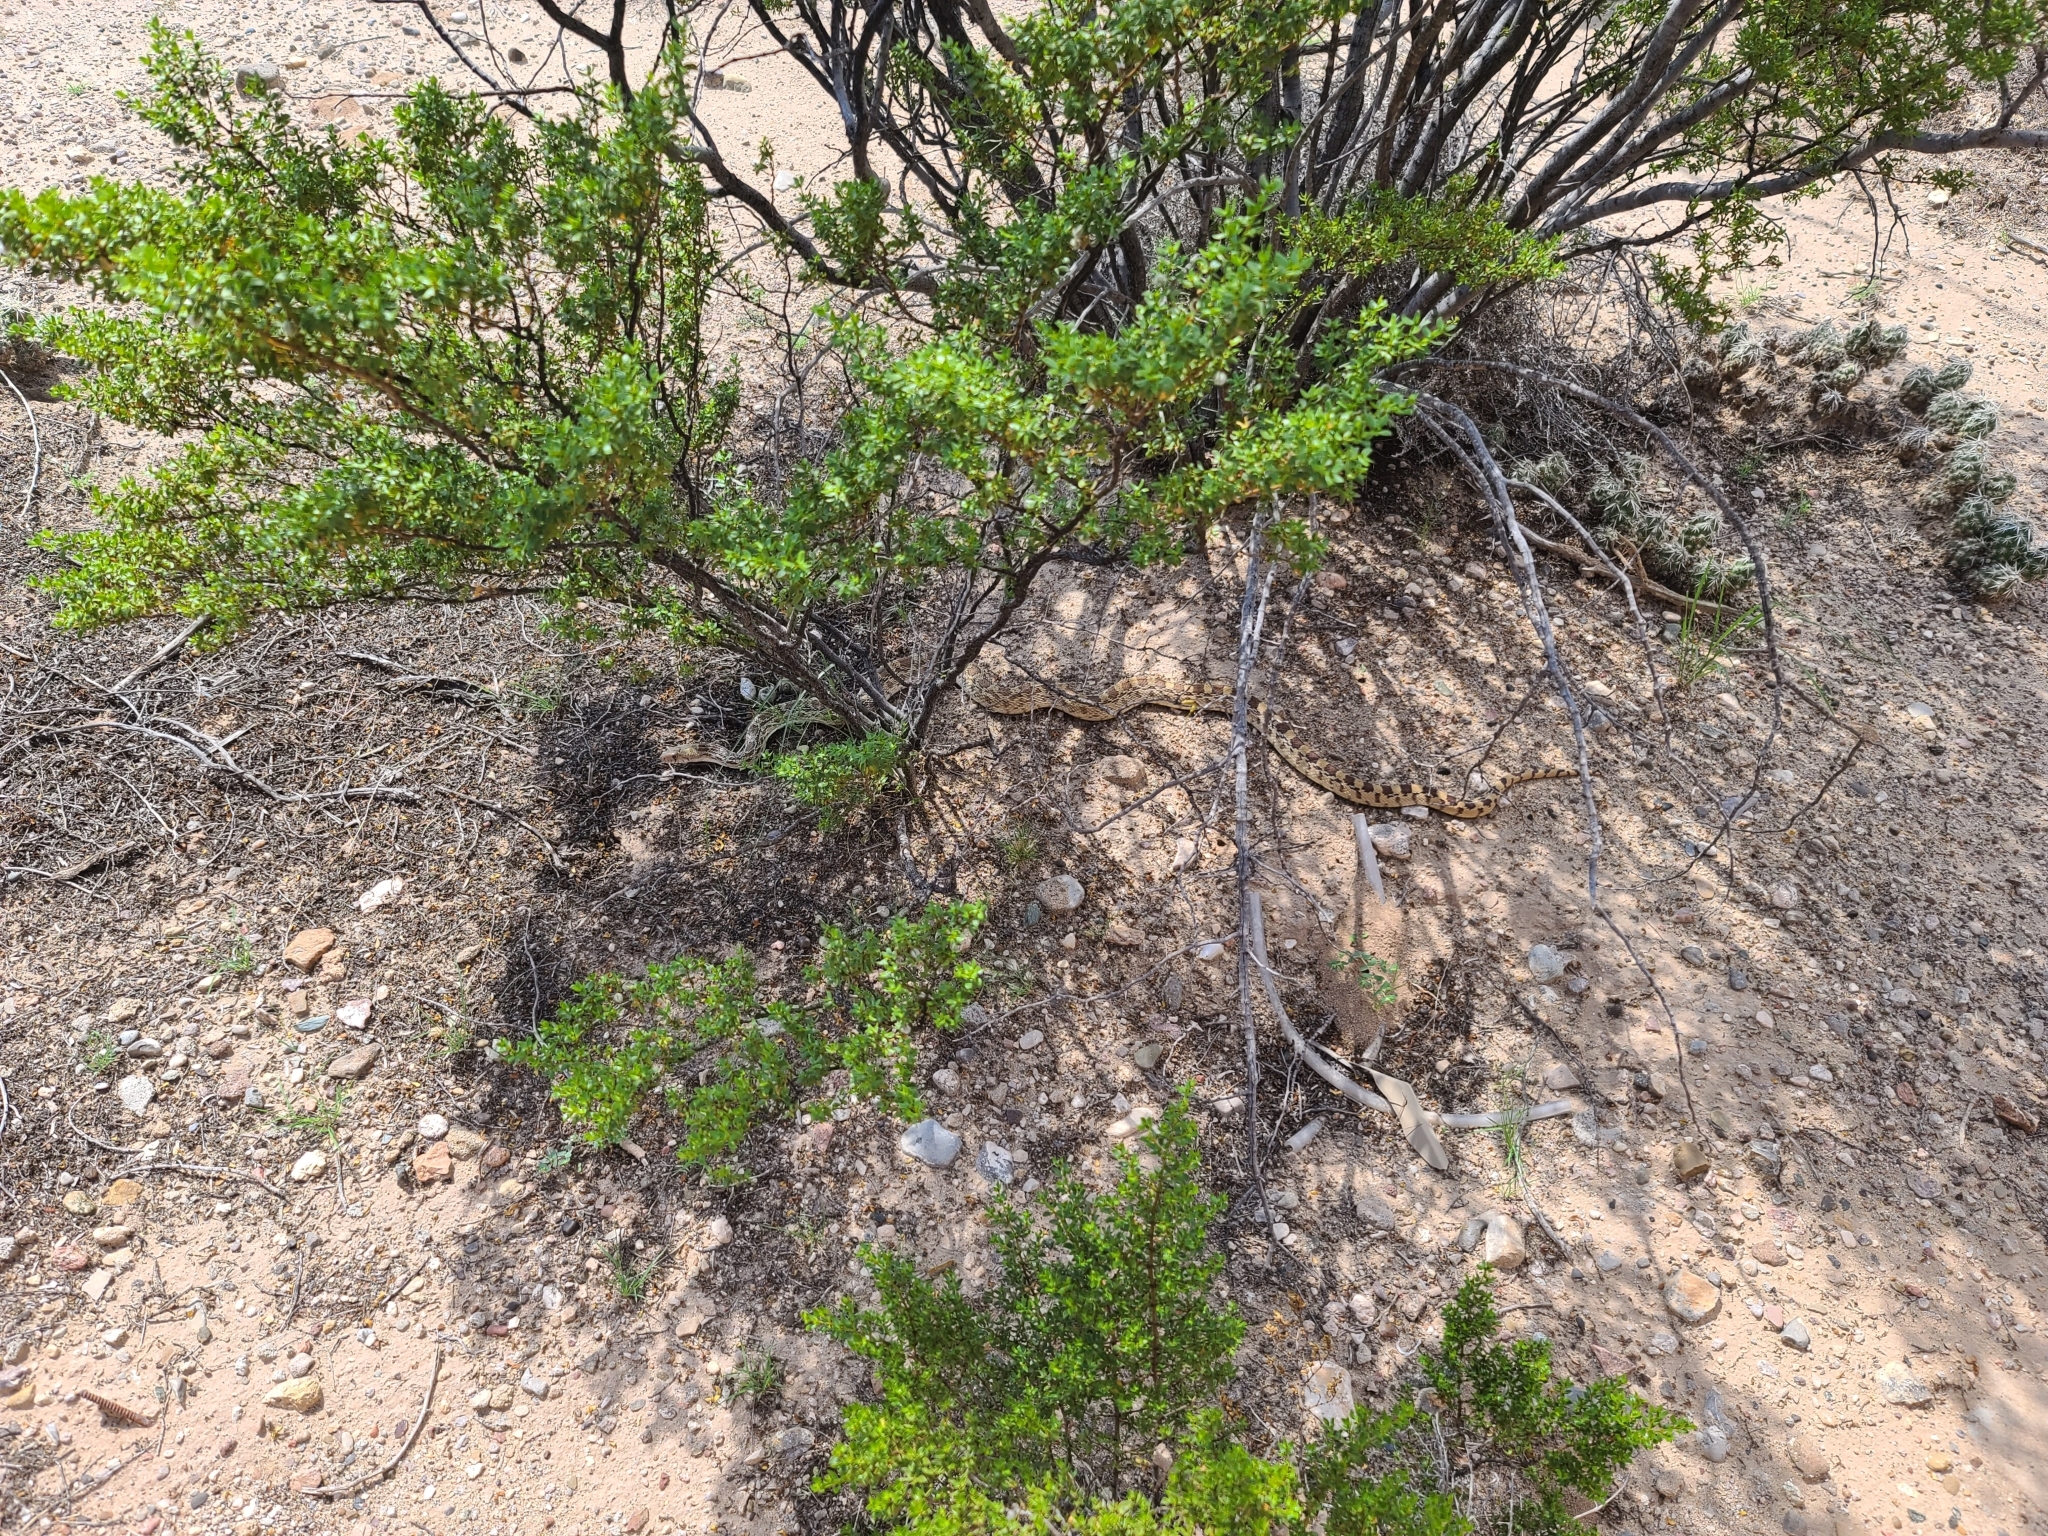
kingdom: Animalia
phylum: Chordata
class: Squamata
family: Colubridae
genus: Pituophis
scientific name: Pituophis catenifer
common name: Gopher snake
